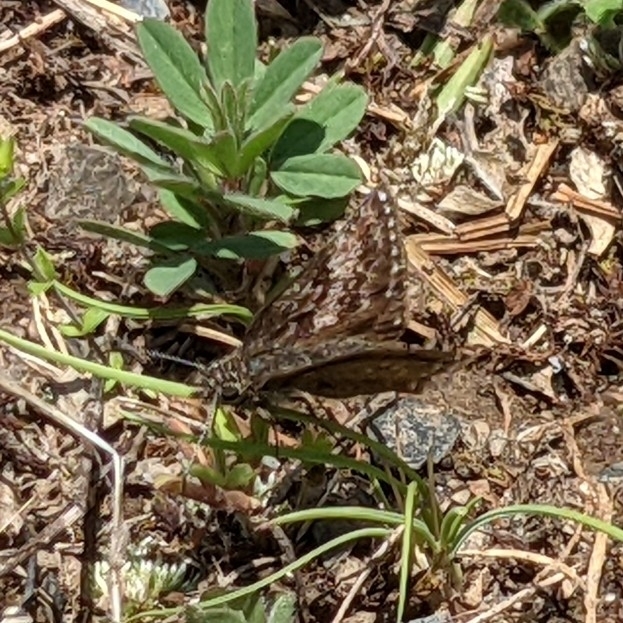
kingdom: Animalia
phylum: Arthropoda
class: Insecta
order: Lepidoptera
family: Hesperiidae
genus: Erynnis
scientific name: Erynnis tages
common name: Dingy skipper
